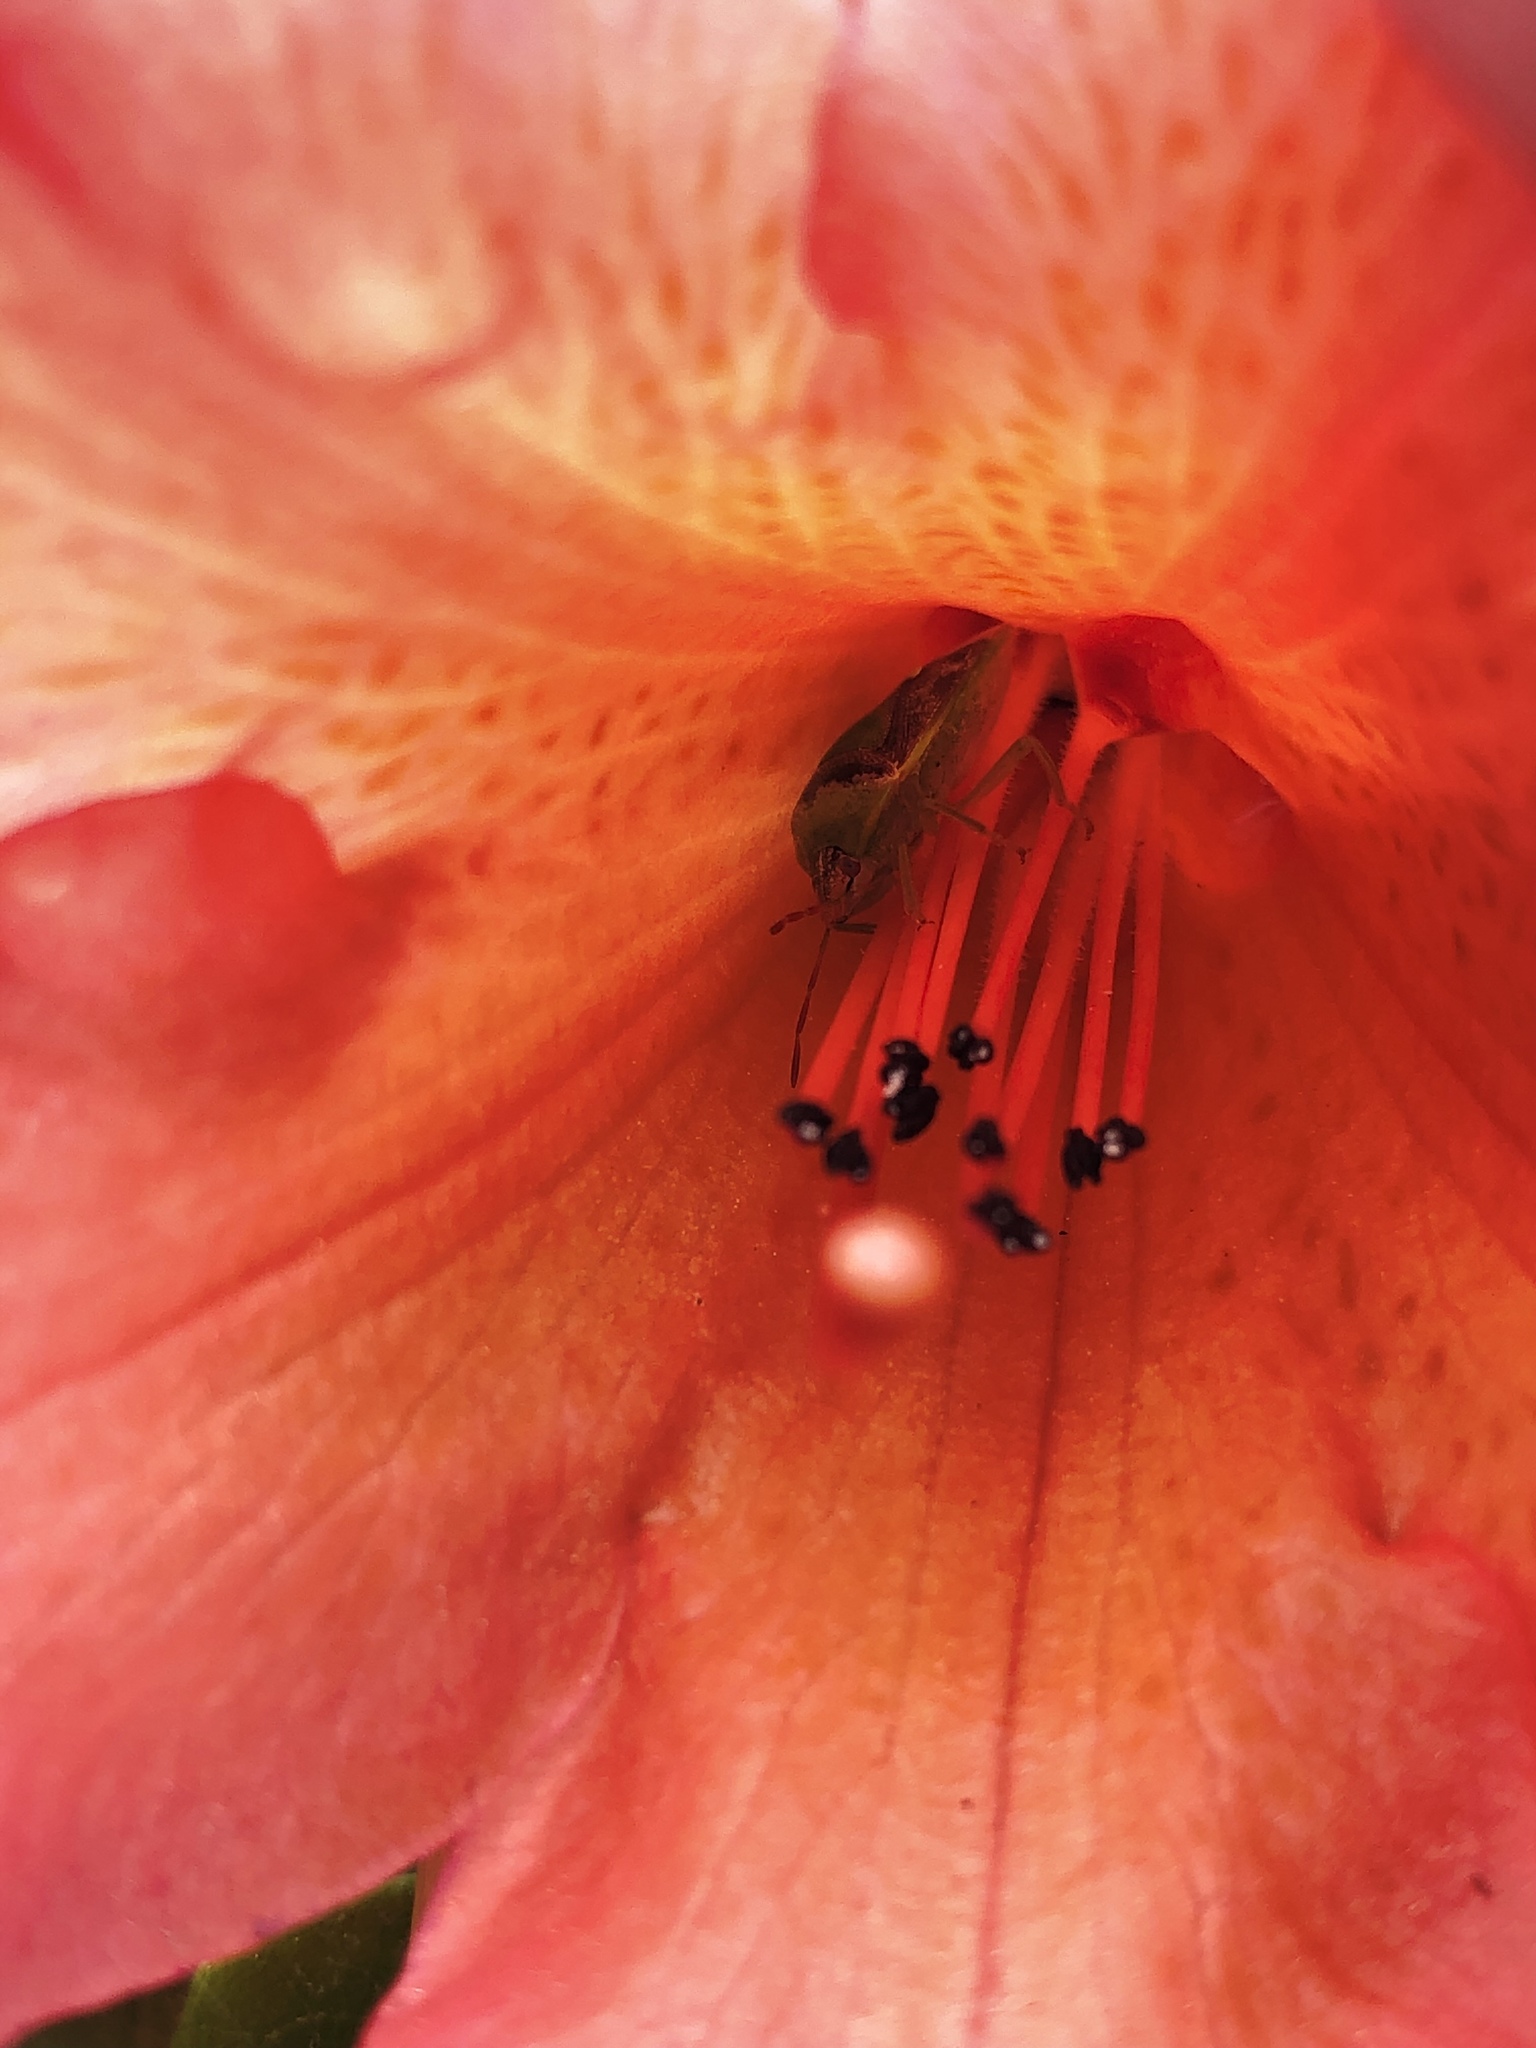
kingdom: Animalia
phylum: Arthropoda
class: Insecta
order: Hemiptera
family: Pentatomidae
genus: Banasa
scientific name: Banasa dimidiata
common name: Green burgundy stink bug
